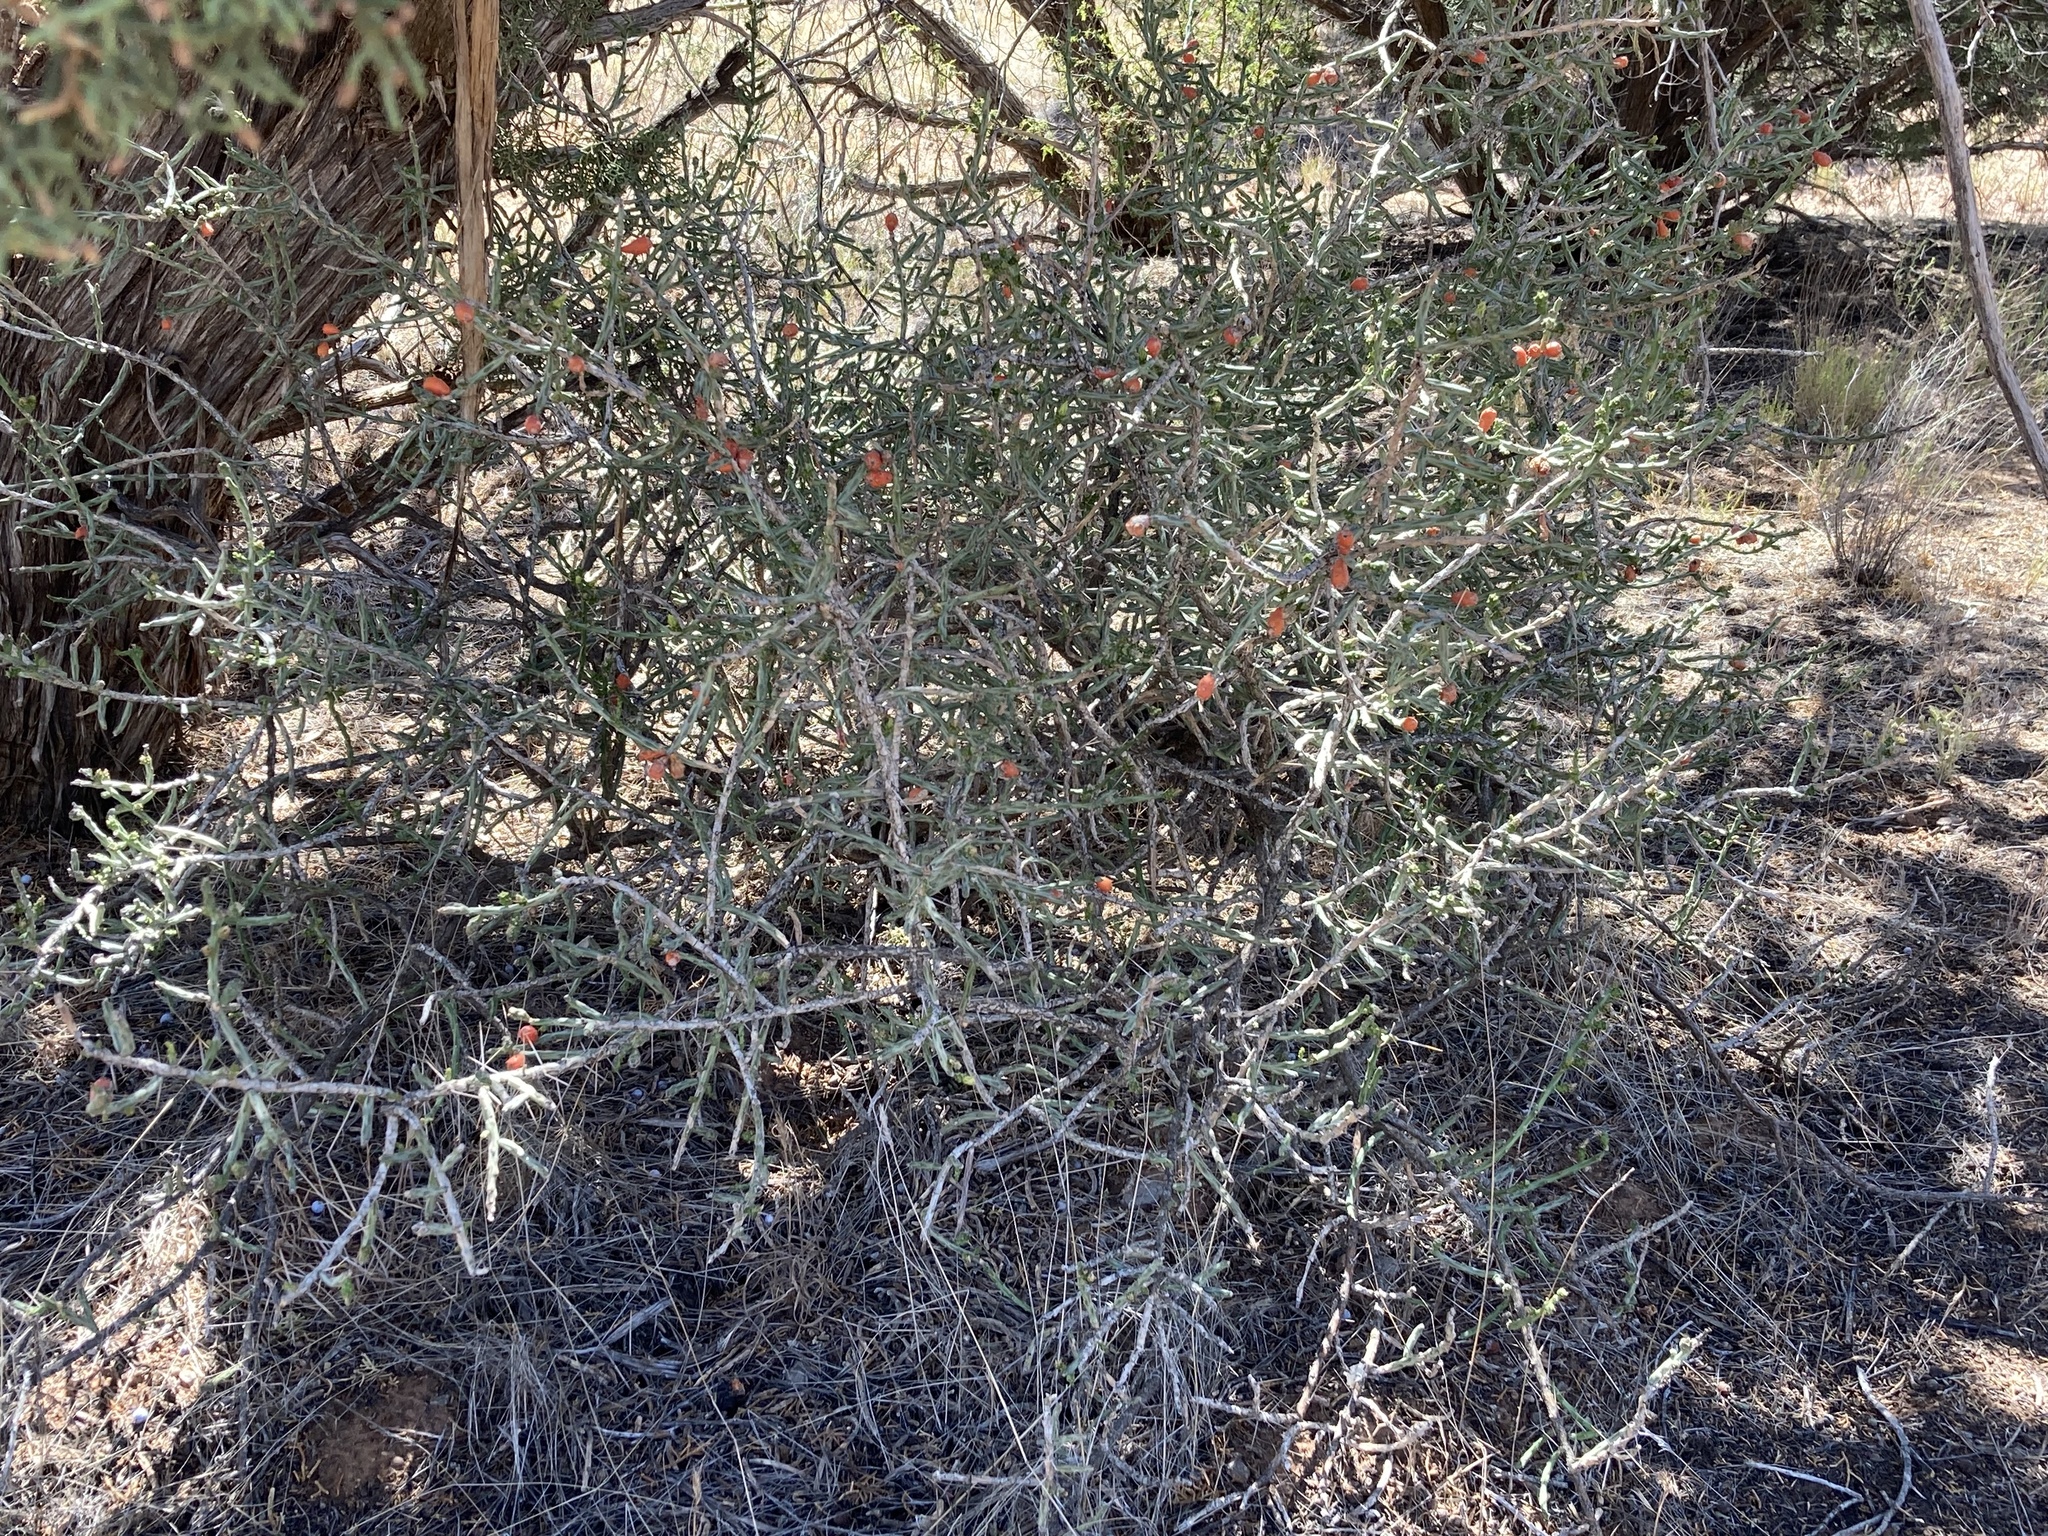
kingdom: Plantae
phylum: Tracheophyta
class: Magnoliopsida
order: Caryophyllales
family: Cactaceae
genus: Cylindropuntia
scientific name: Cylindropuntia leptocaulis
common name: Christmas cactus
